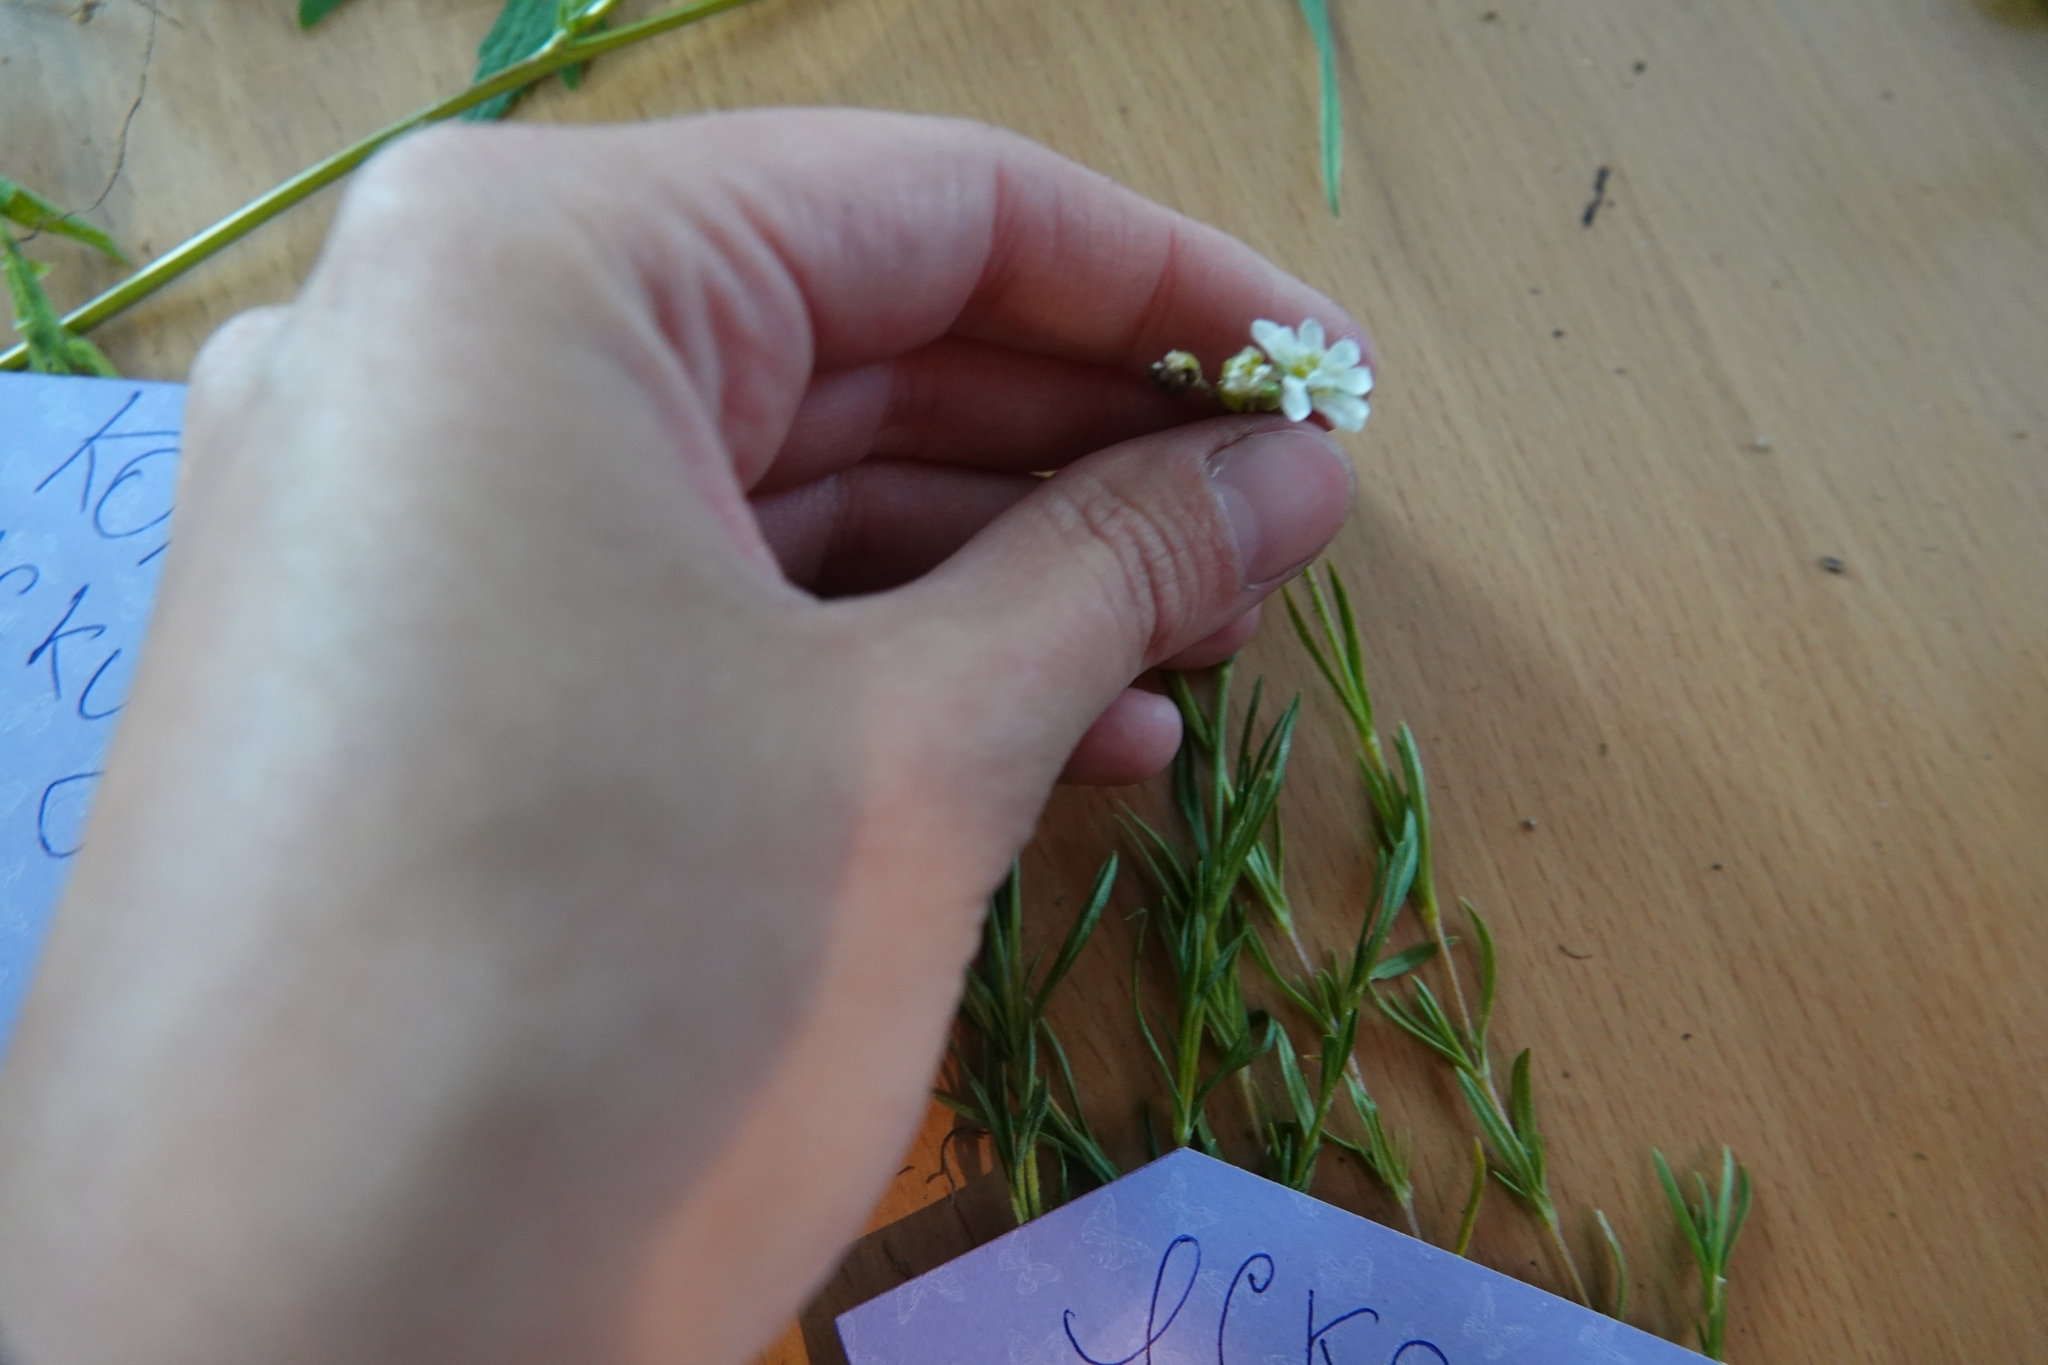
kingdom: Plantae
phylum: Tracheophyta
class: Magnoliopsida
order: Caryophyllales
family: Caryophyllaceae
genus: Cerastium
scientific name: Cerastium arvense
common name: Field mouse-ear
